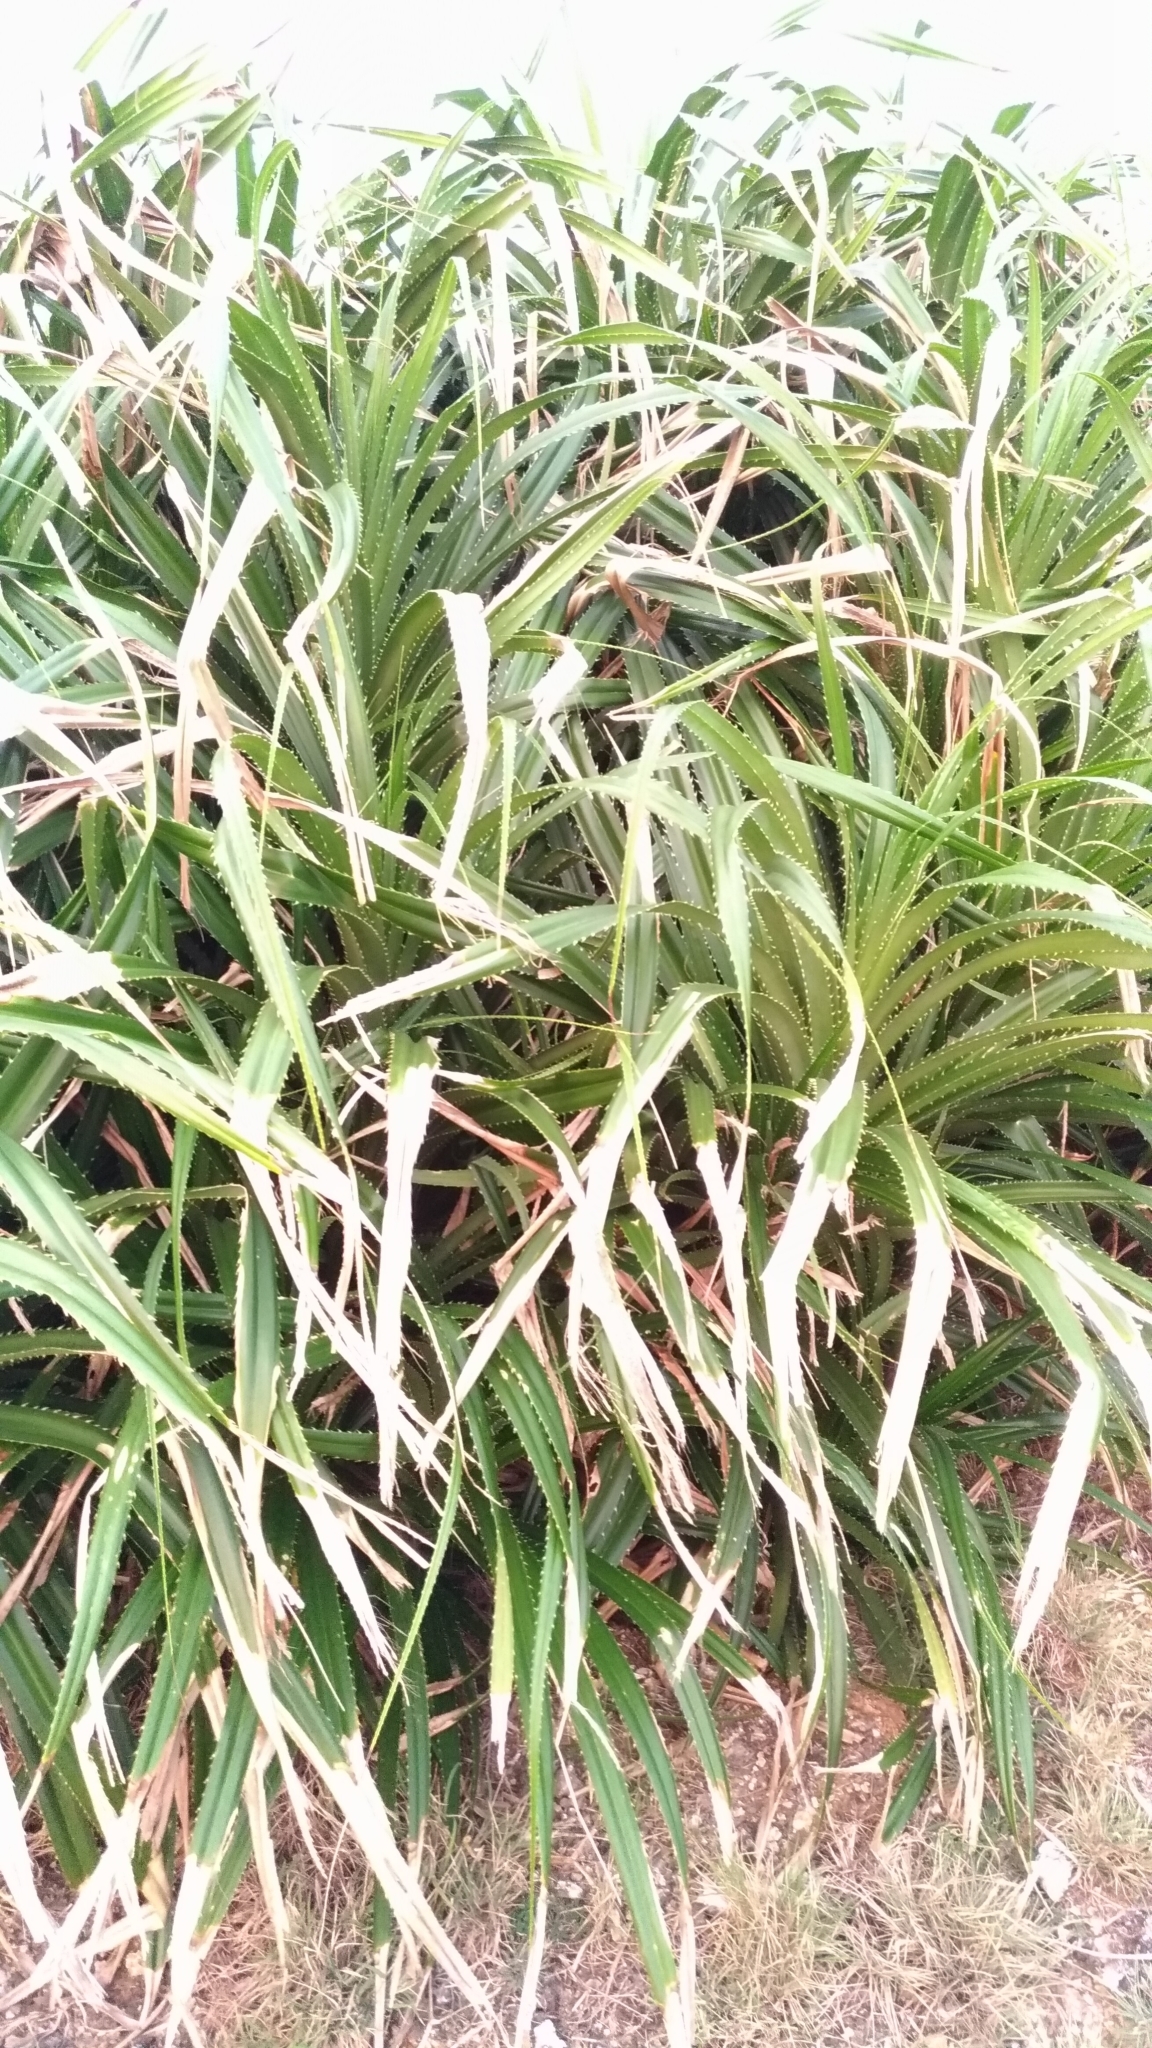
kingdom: Plantae
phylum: Tracheophyta
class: Liliopsida
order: Pandanales
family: Pandanaceae
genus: Pandanus
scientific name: Pandanus odorifer
